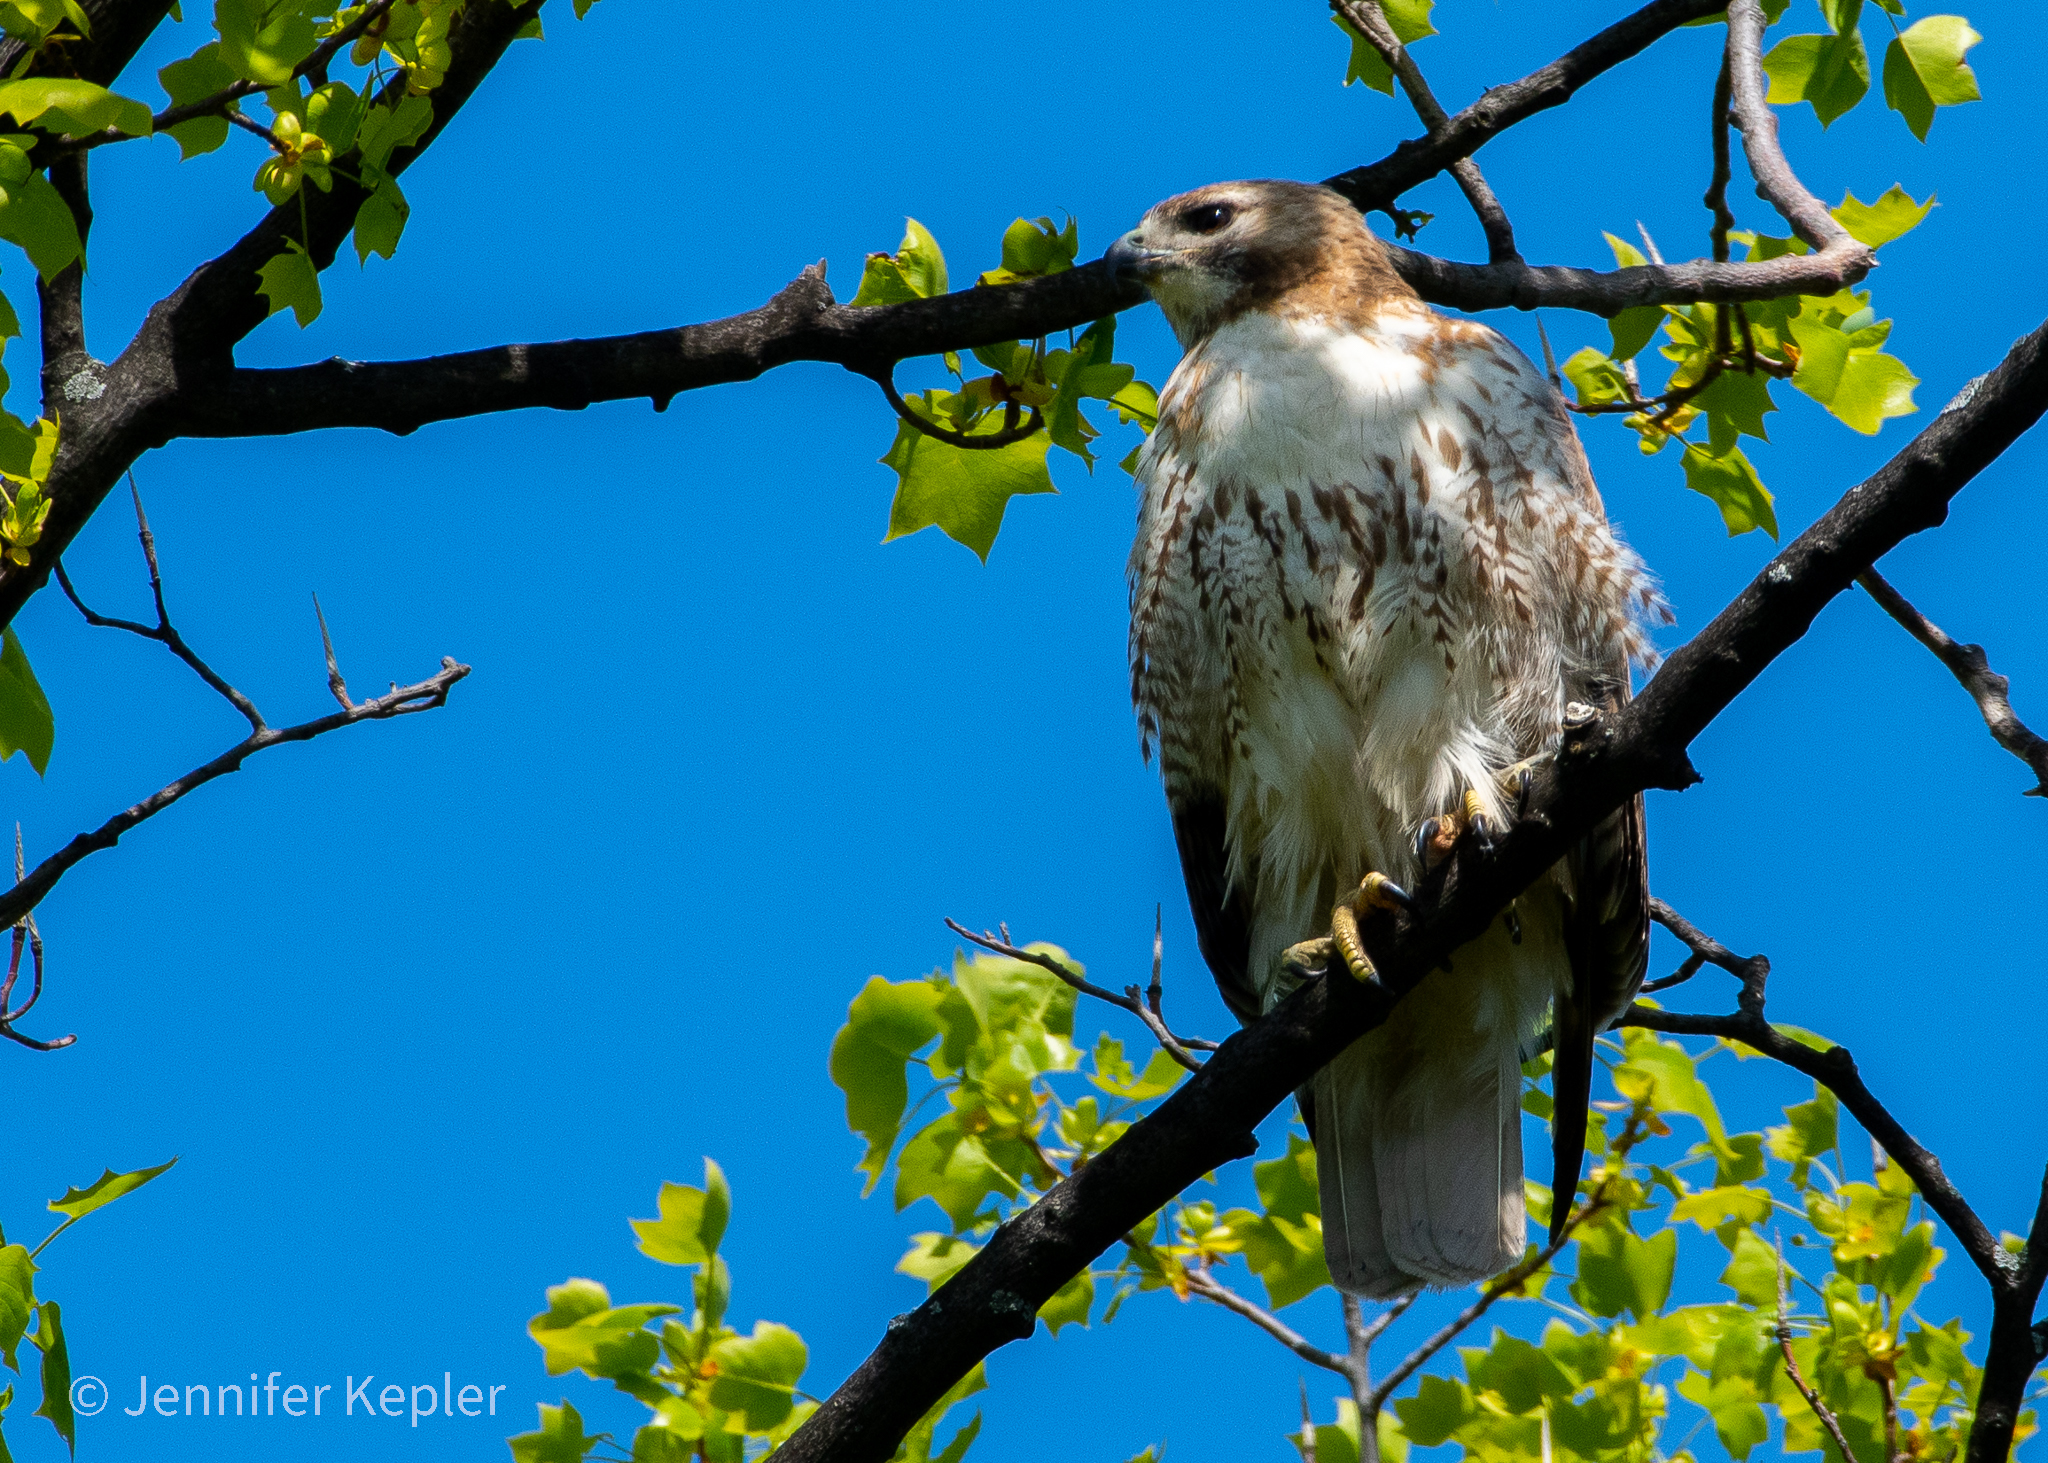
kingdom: Animalia
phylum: Chordata
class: Aves
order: Accipitriformes
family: Accipitridae
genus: Buteo
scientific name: Buteo jamaicensis
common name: Red-tailed hawk
